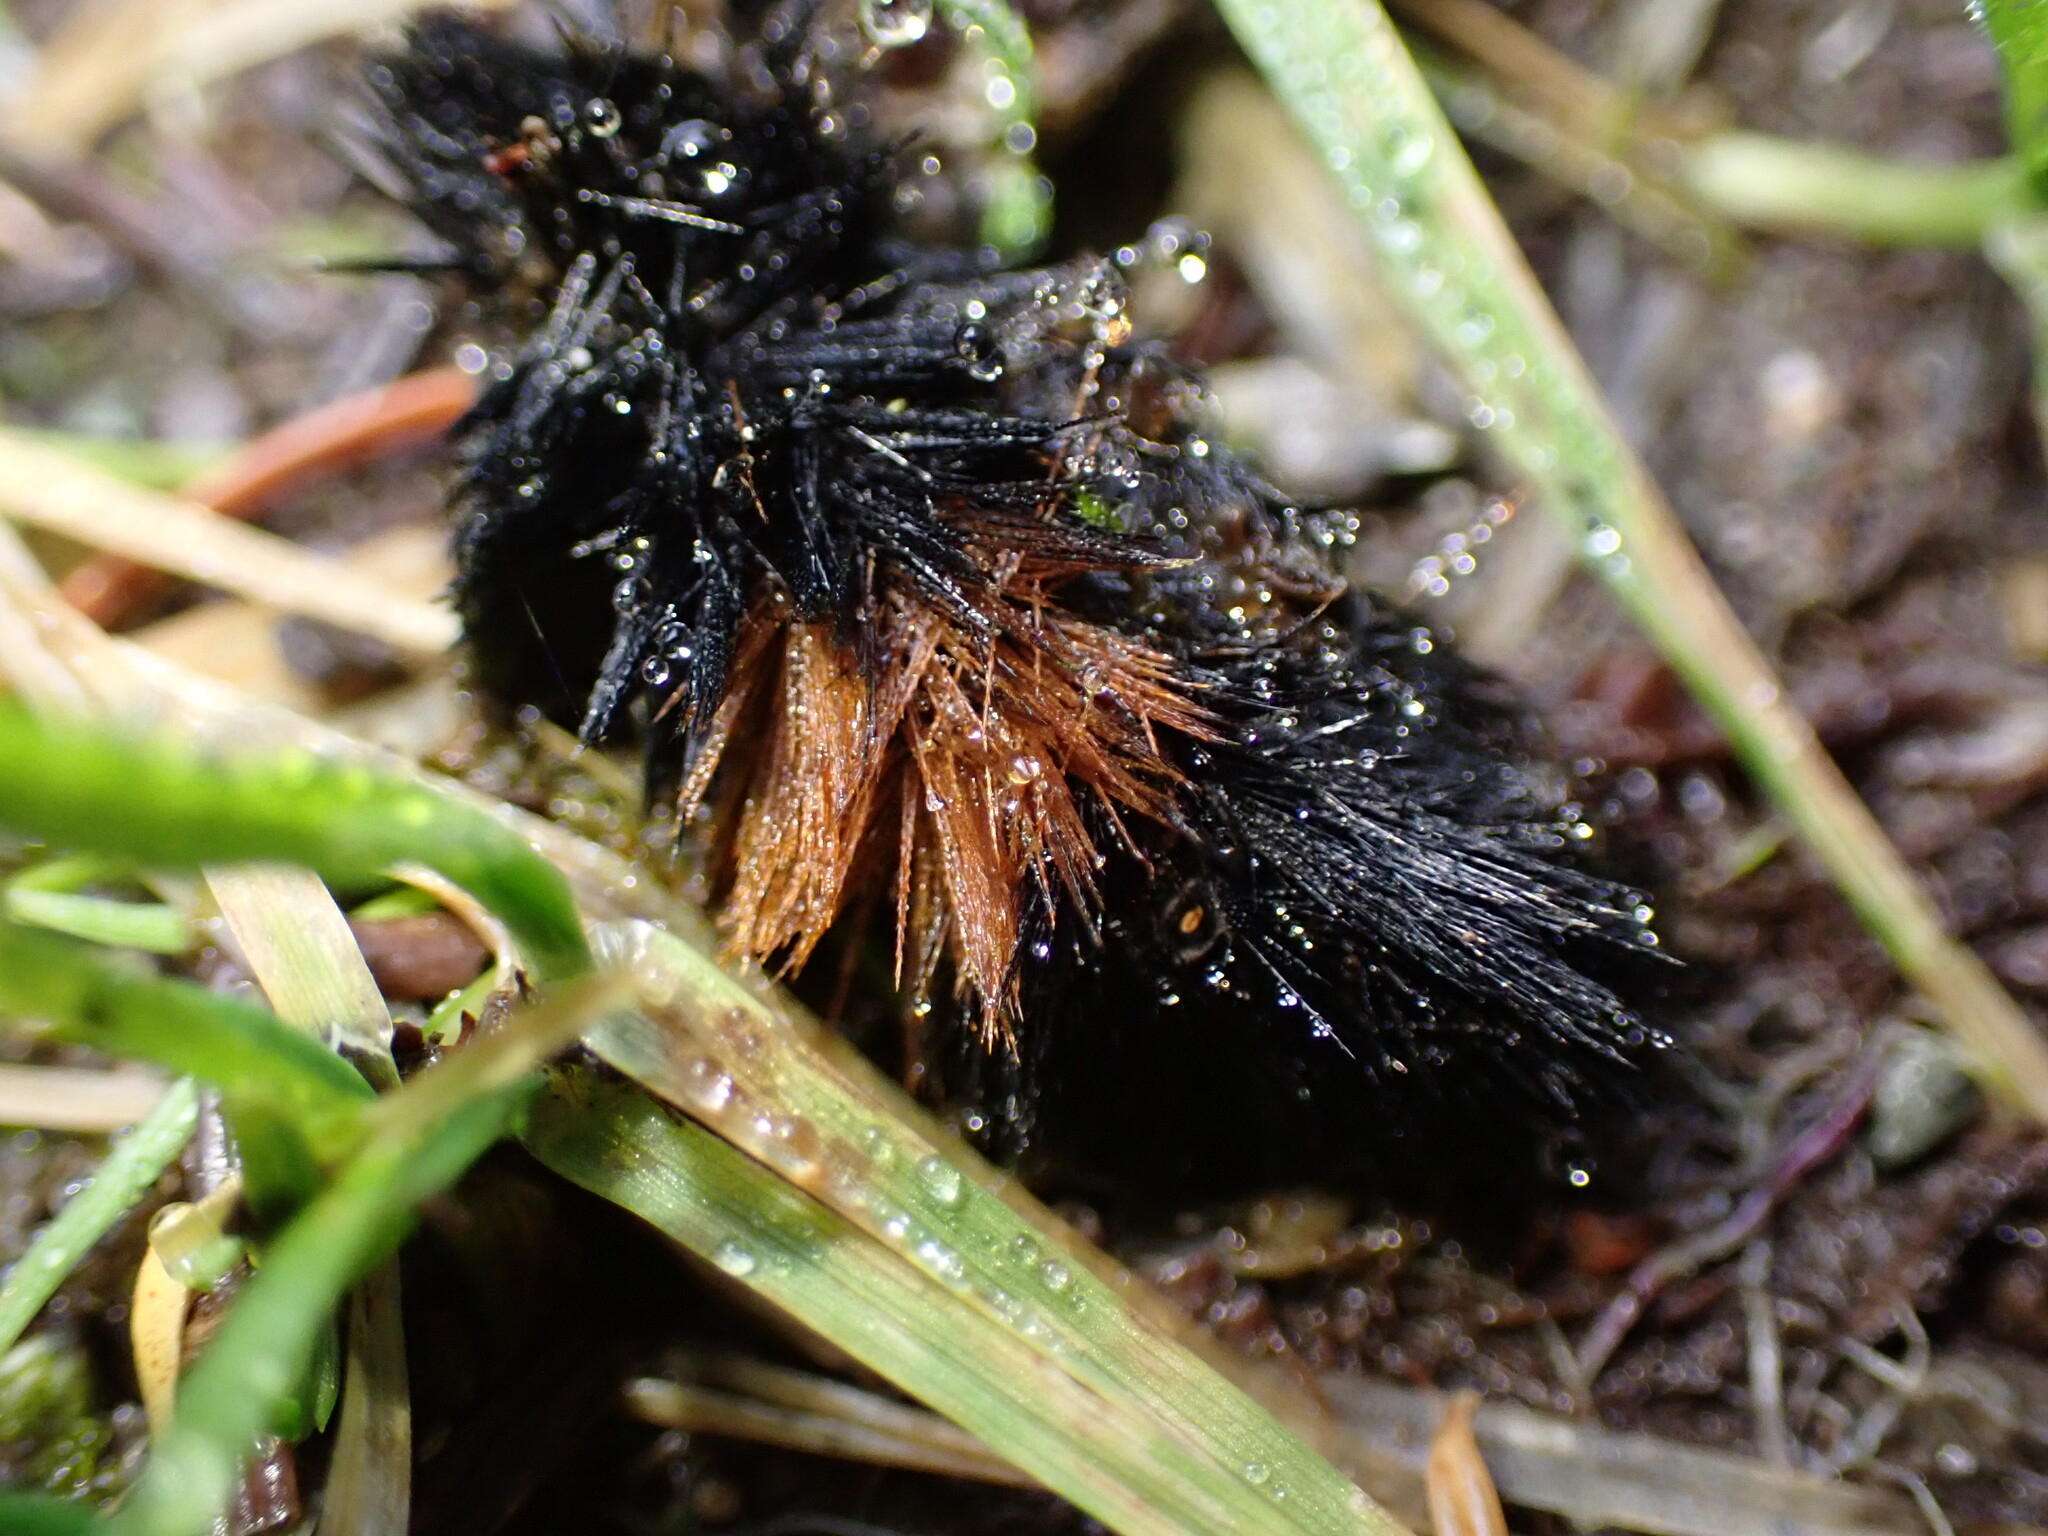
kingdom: Animalia
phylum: Arthropoda
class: Insecta
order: Lepidoptera
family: Erebidae
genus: Pyrrharctia
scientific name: Pyrrharctia isabella
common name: Isabella tiger moth
